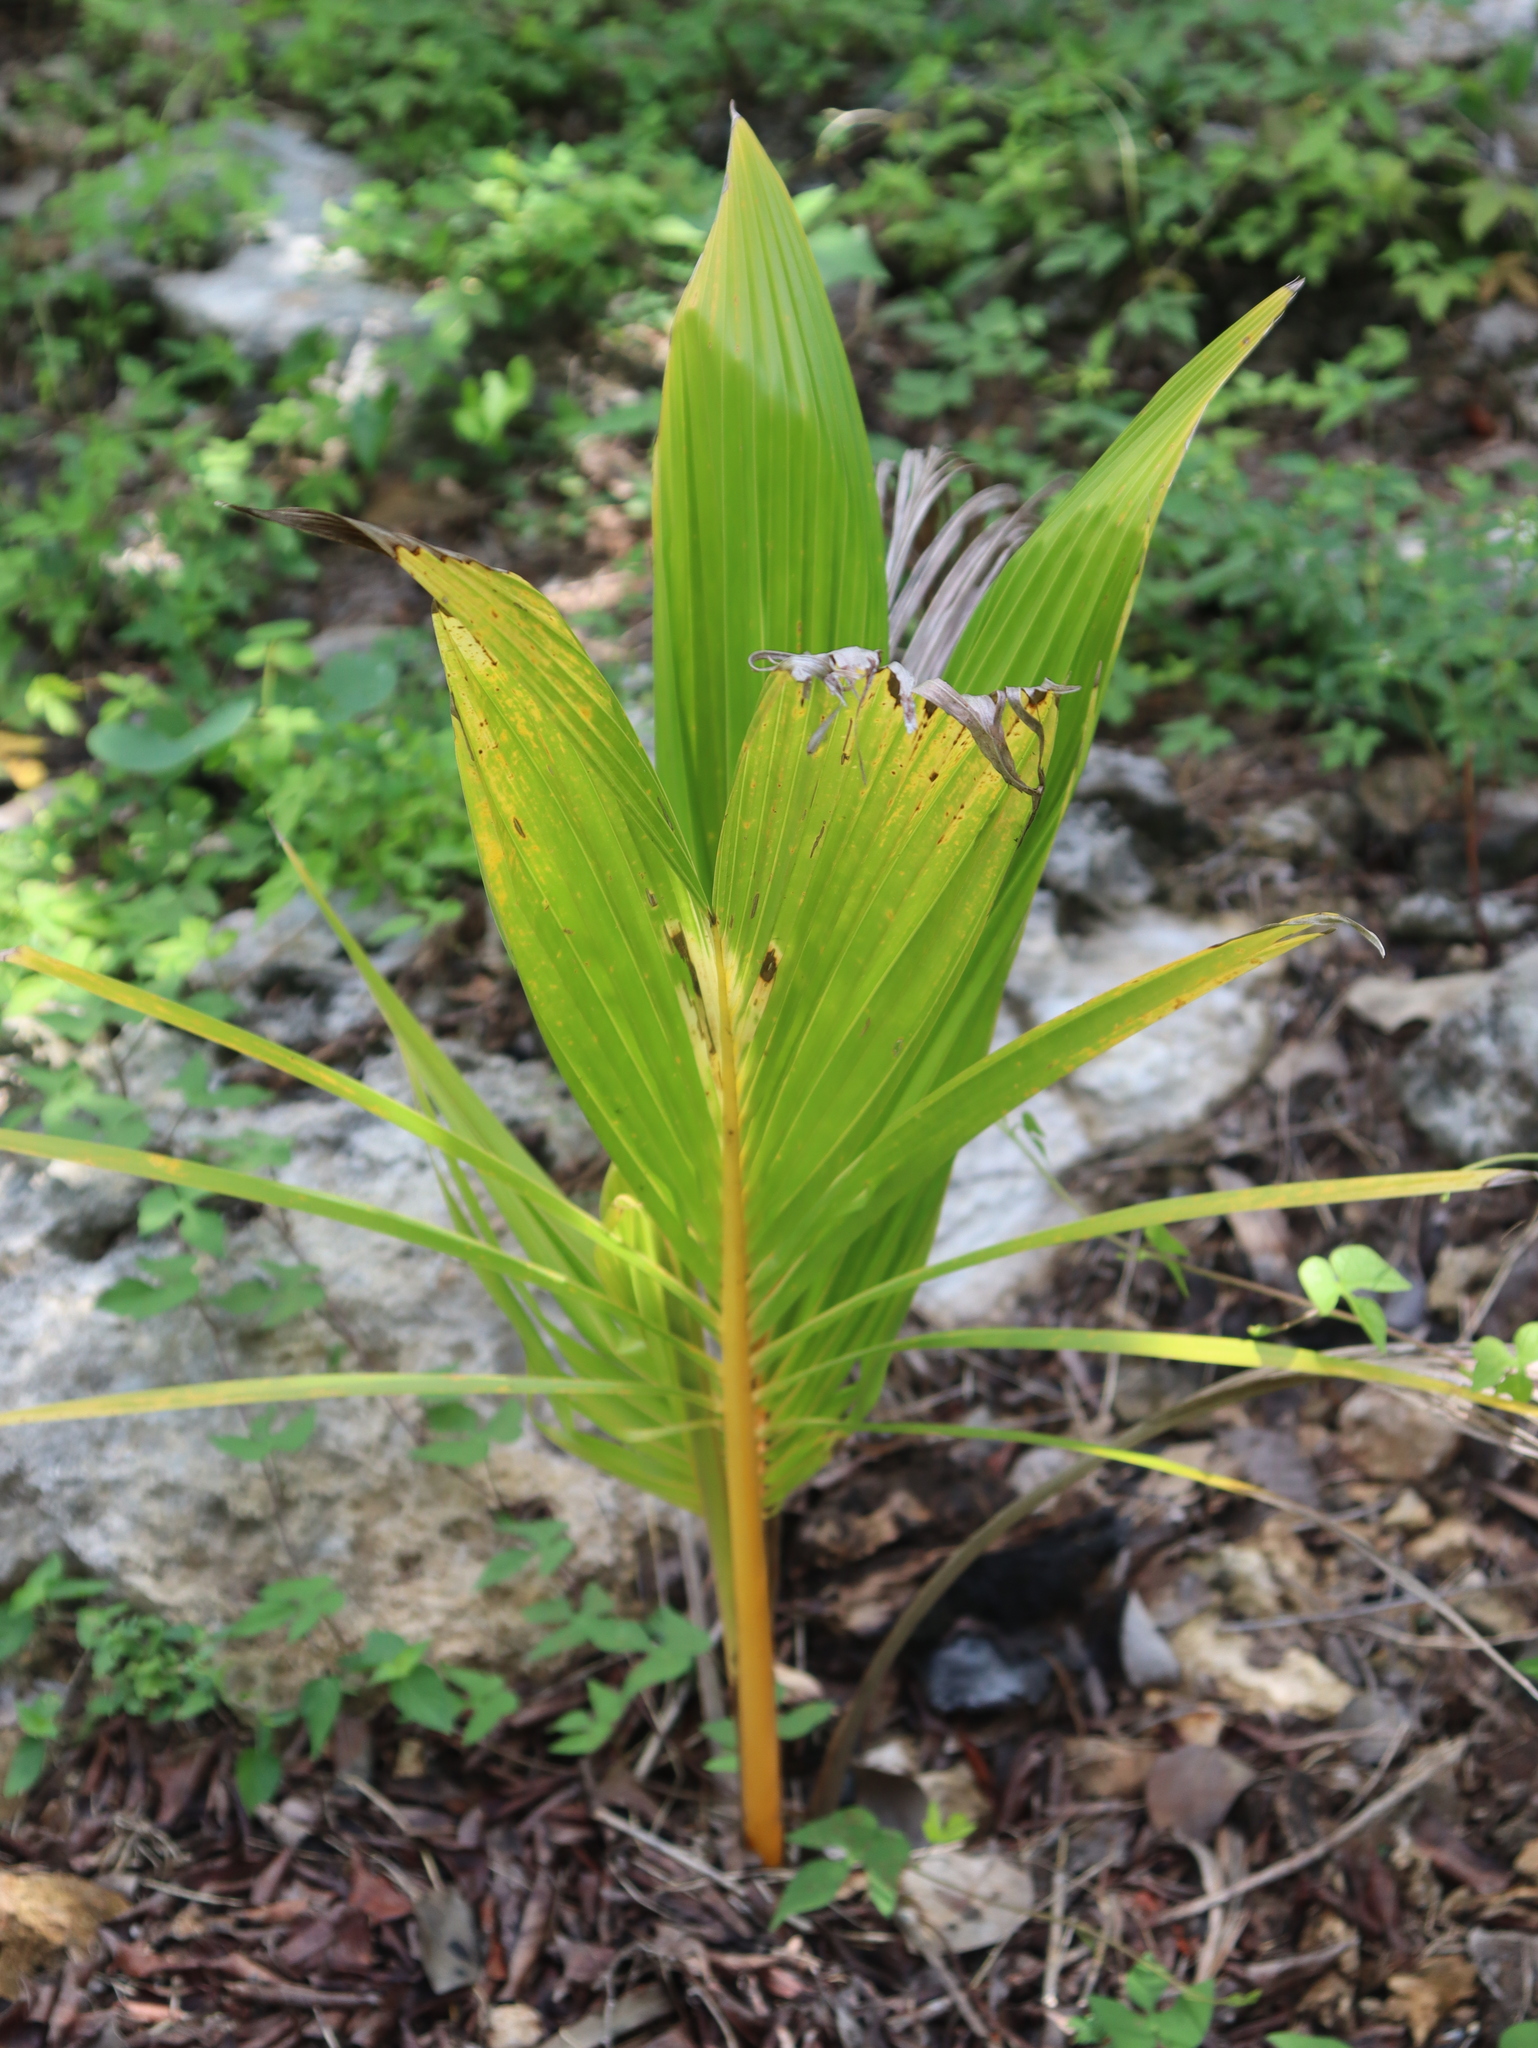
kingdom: Plantae
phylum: Tracheophyta
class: Liliopsida
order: Arecales
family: Arecaceae
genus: Cocos
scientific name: Cocos nucifera
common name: Coconut palm
